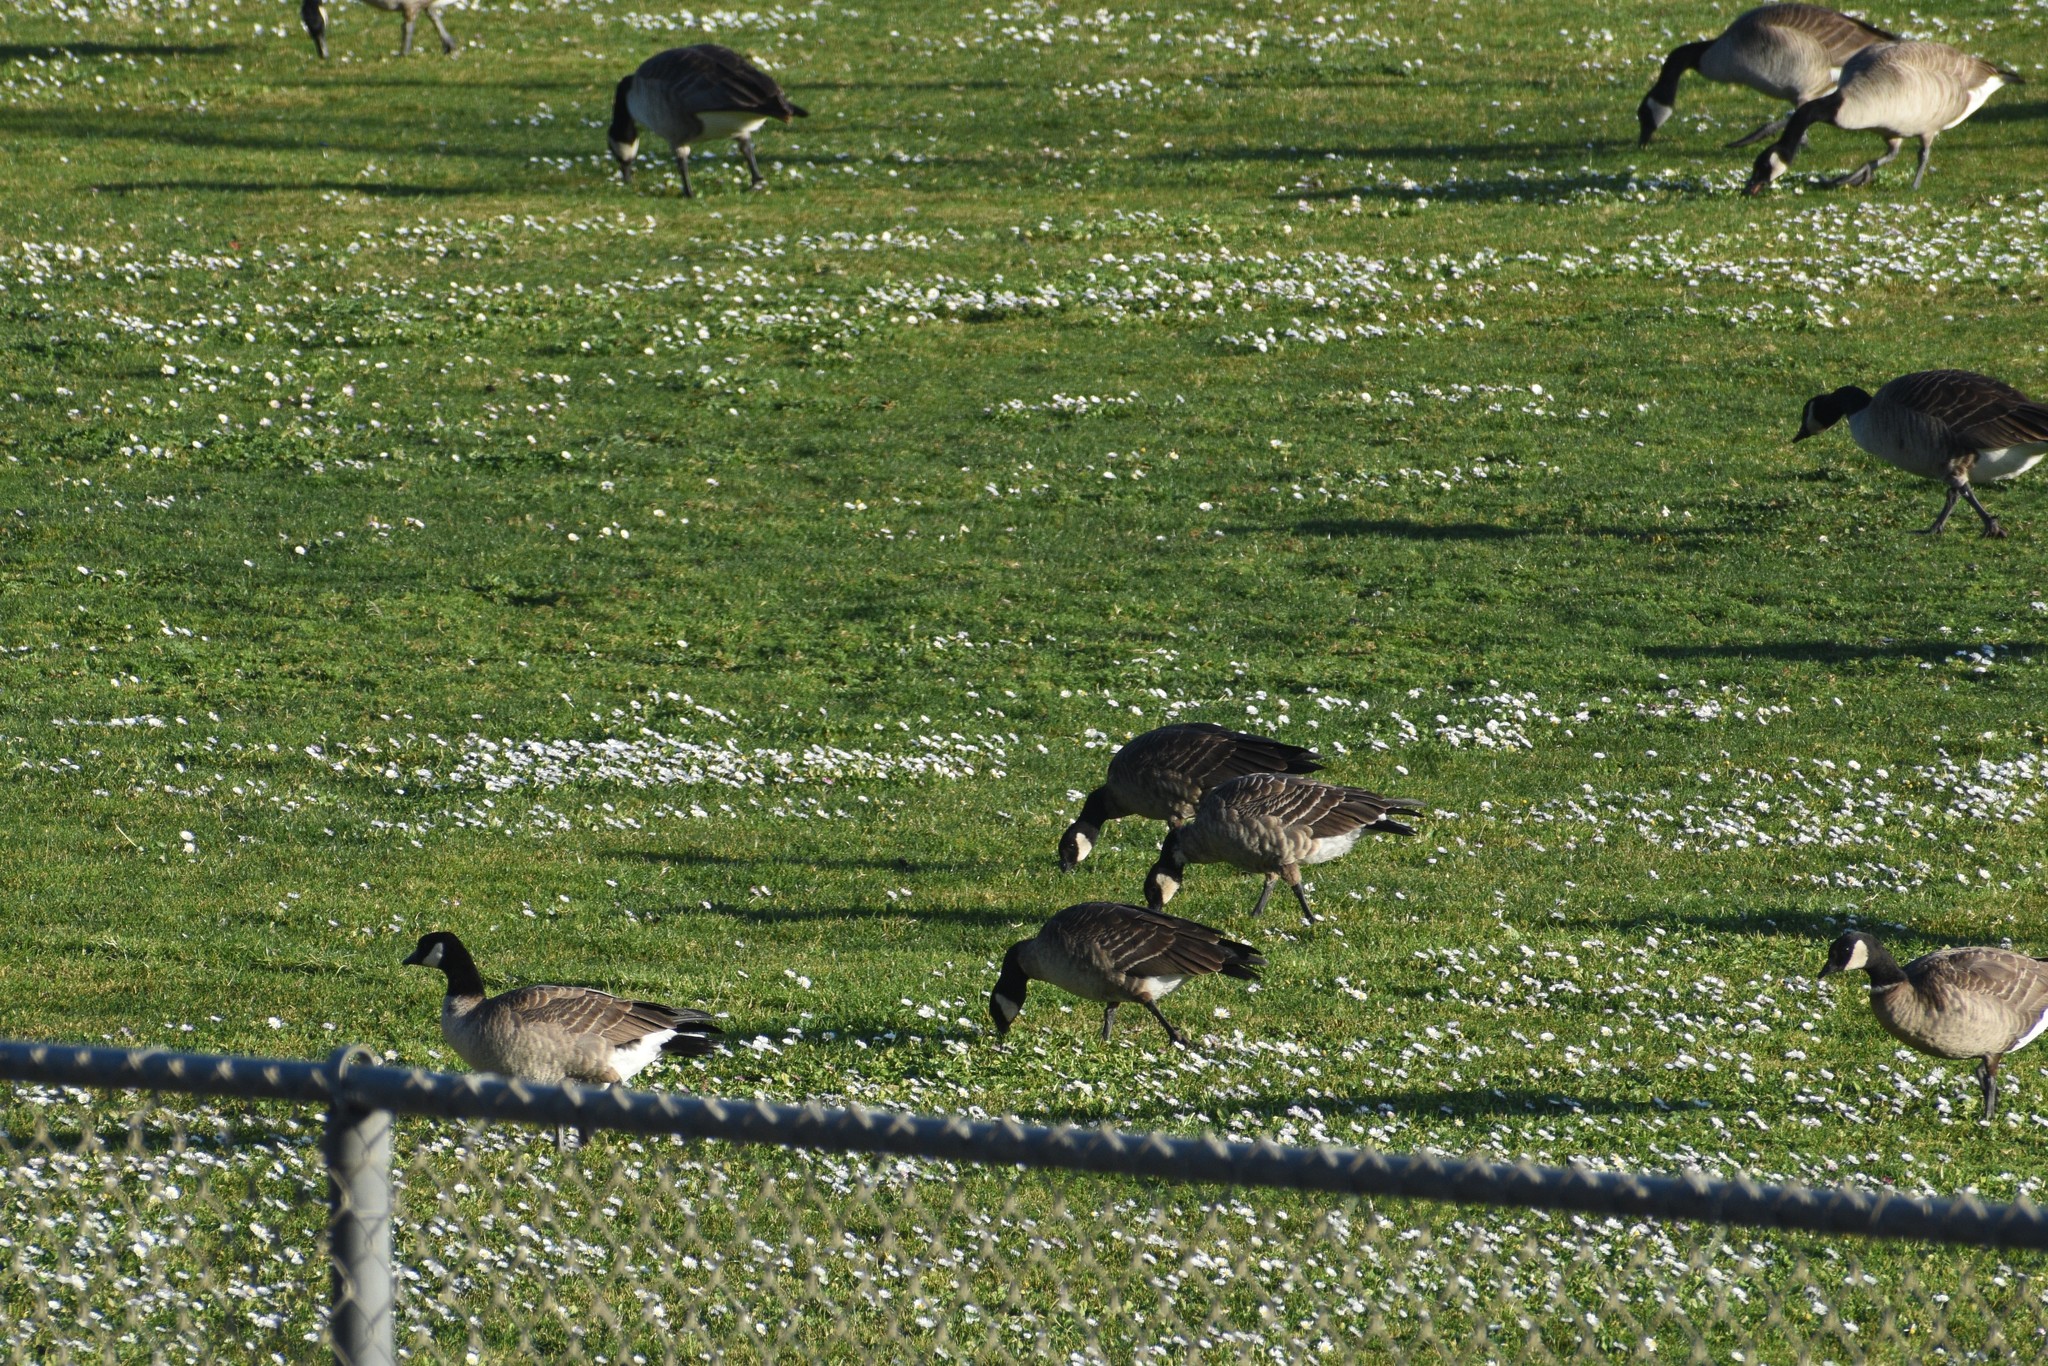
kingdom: Animalia
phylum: Chordata
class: Aves
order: Anseriformes
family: Anatidae
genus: Branta
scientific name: Branta hutchinsii
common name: Cackling goose
